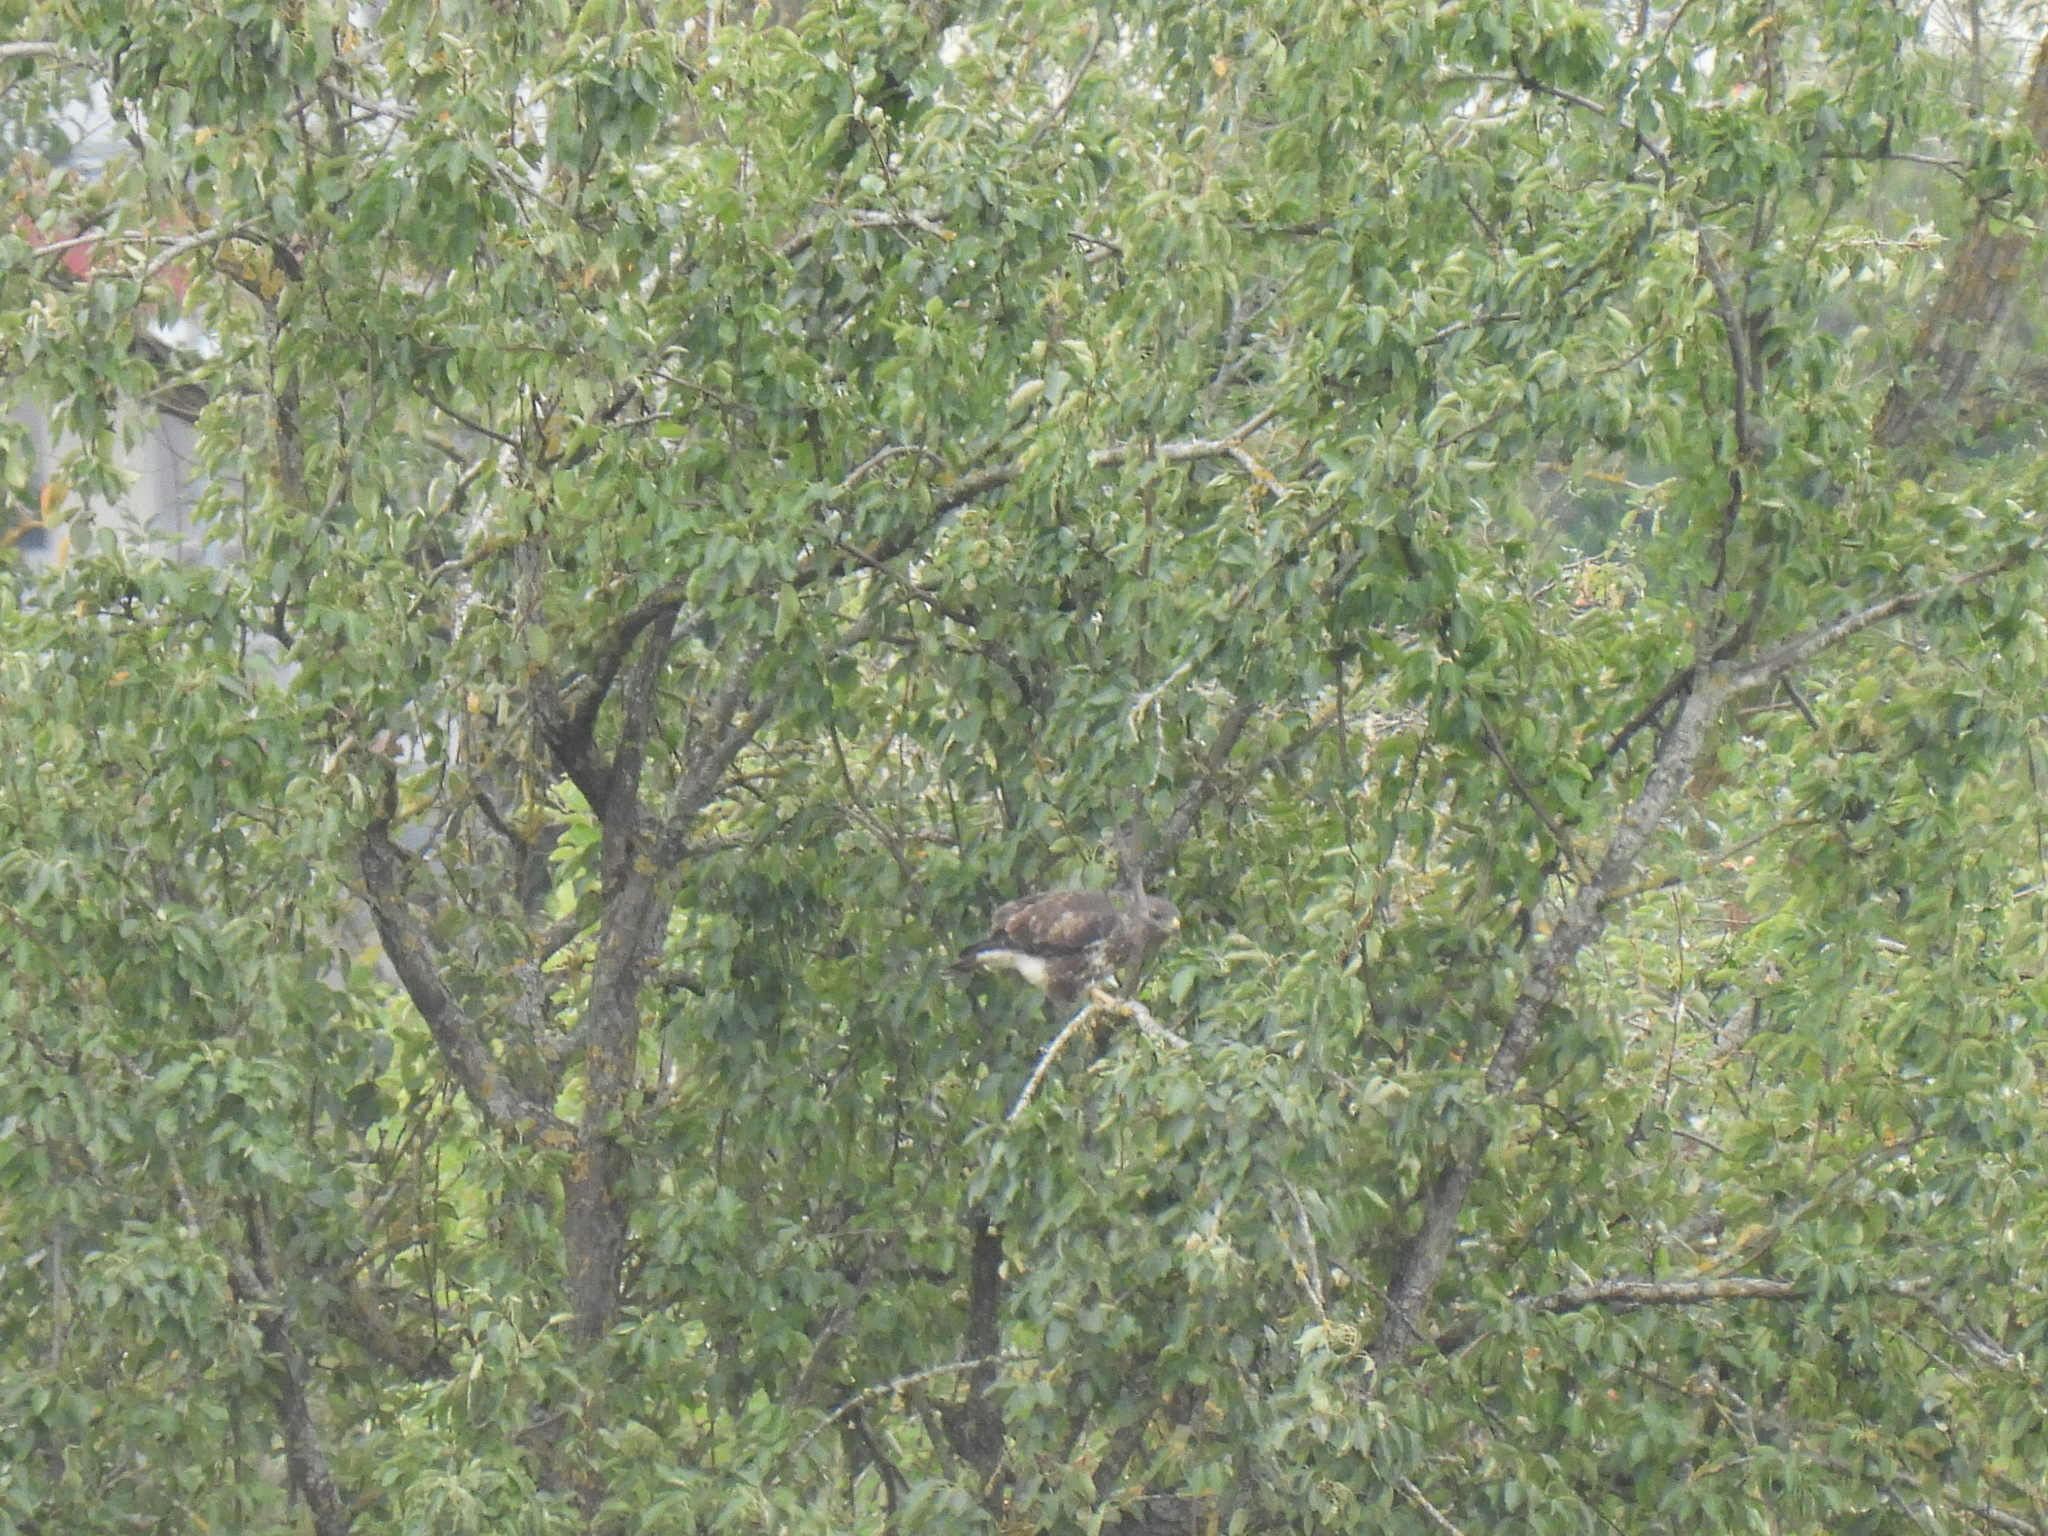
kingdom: Animalia
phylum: Chordata
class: Aves
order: Accipitriformes
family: Accipitridae
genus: Buteo
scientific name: Buteo buteo
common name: Common buzzard
